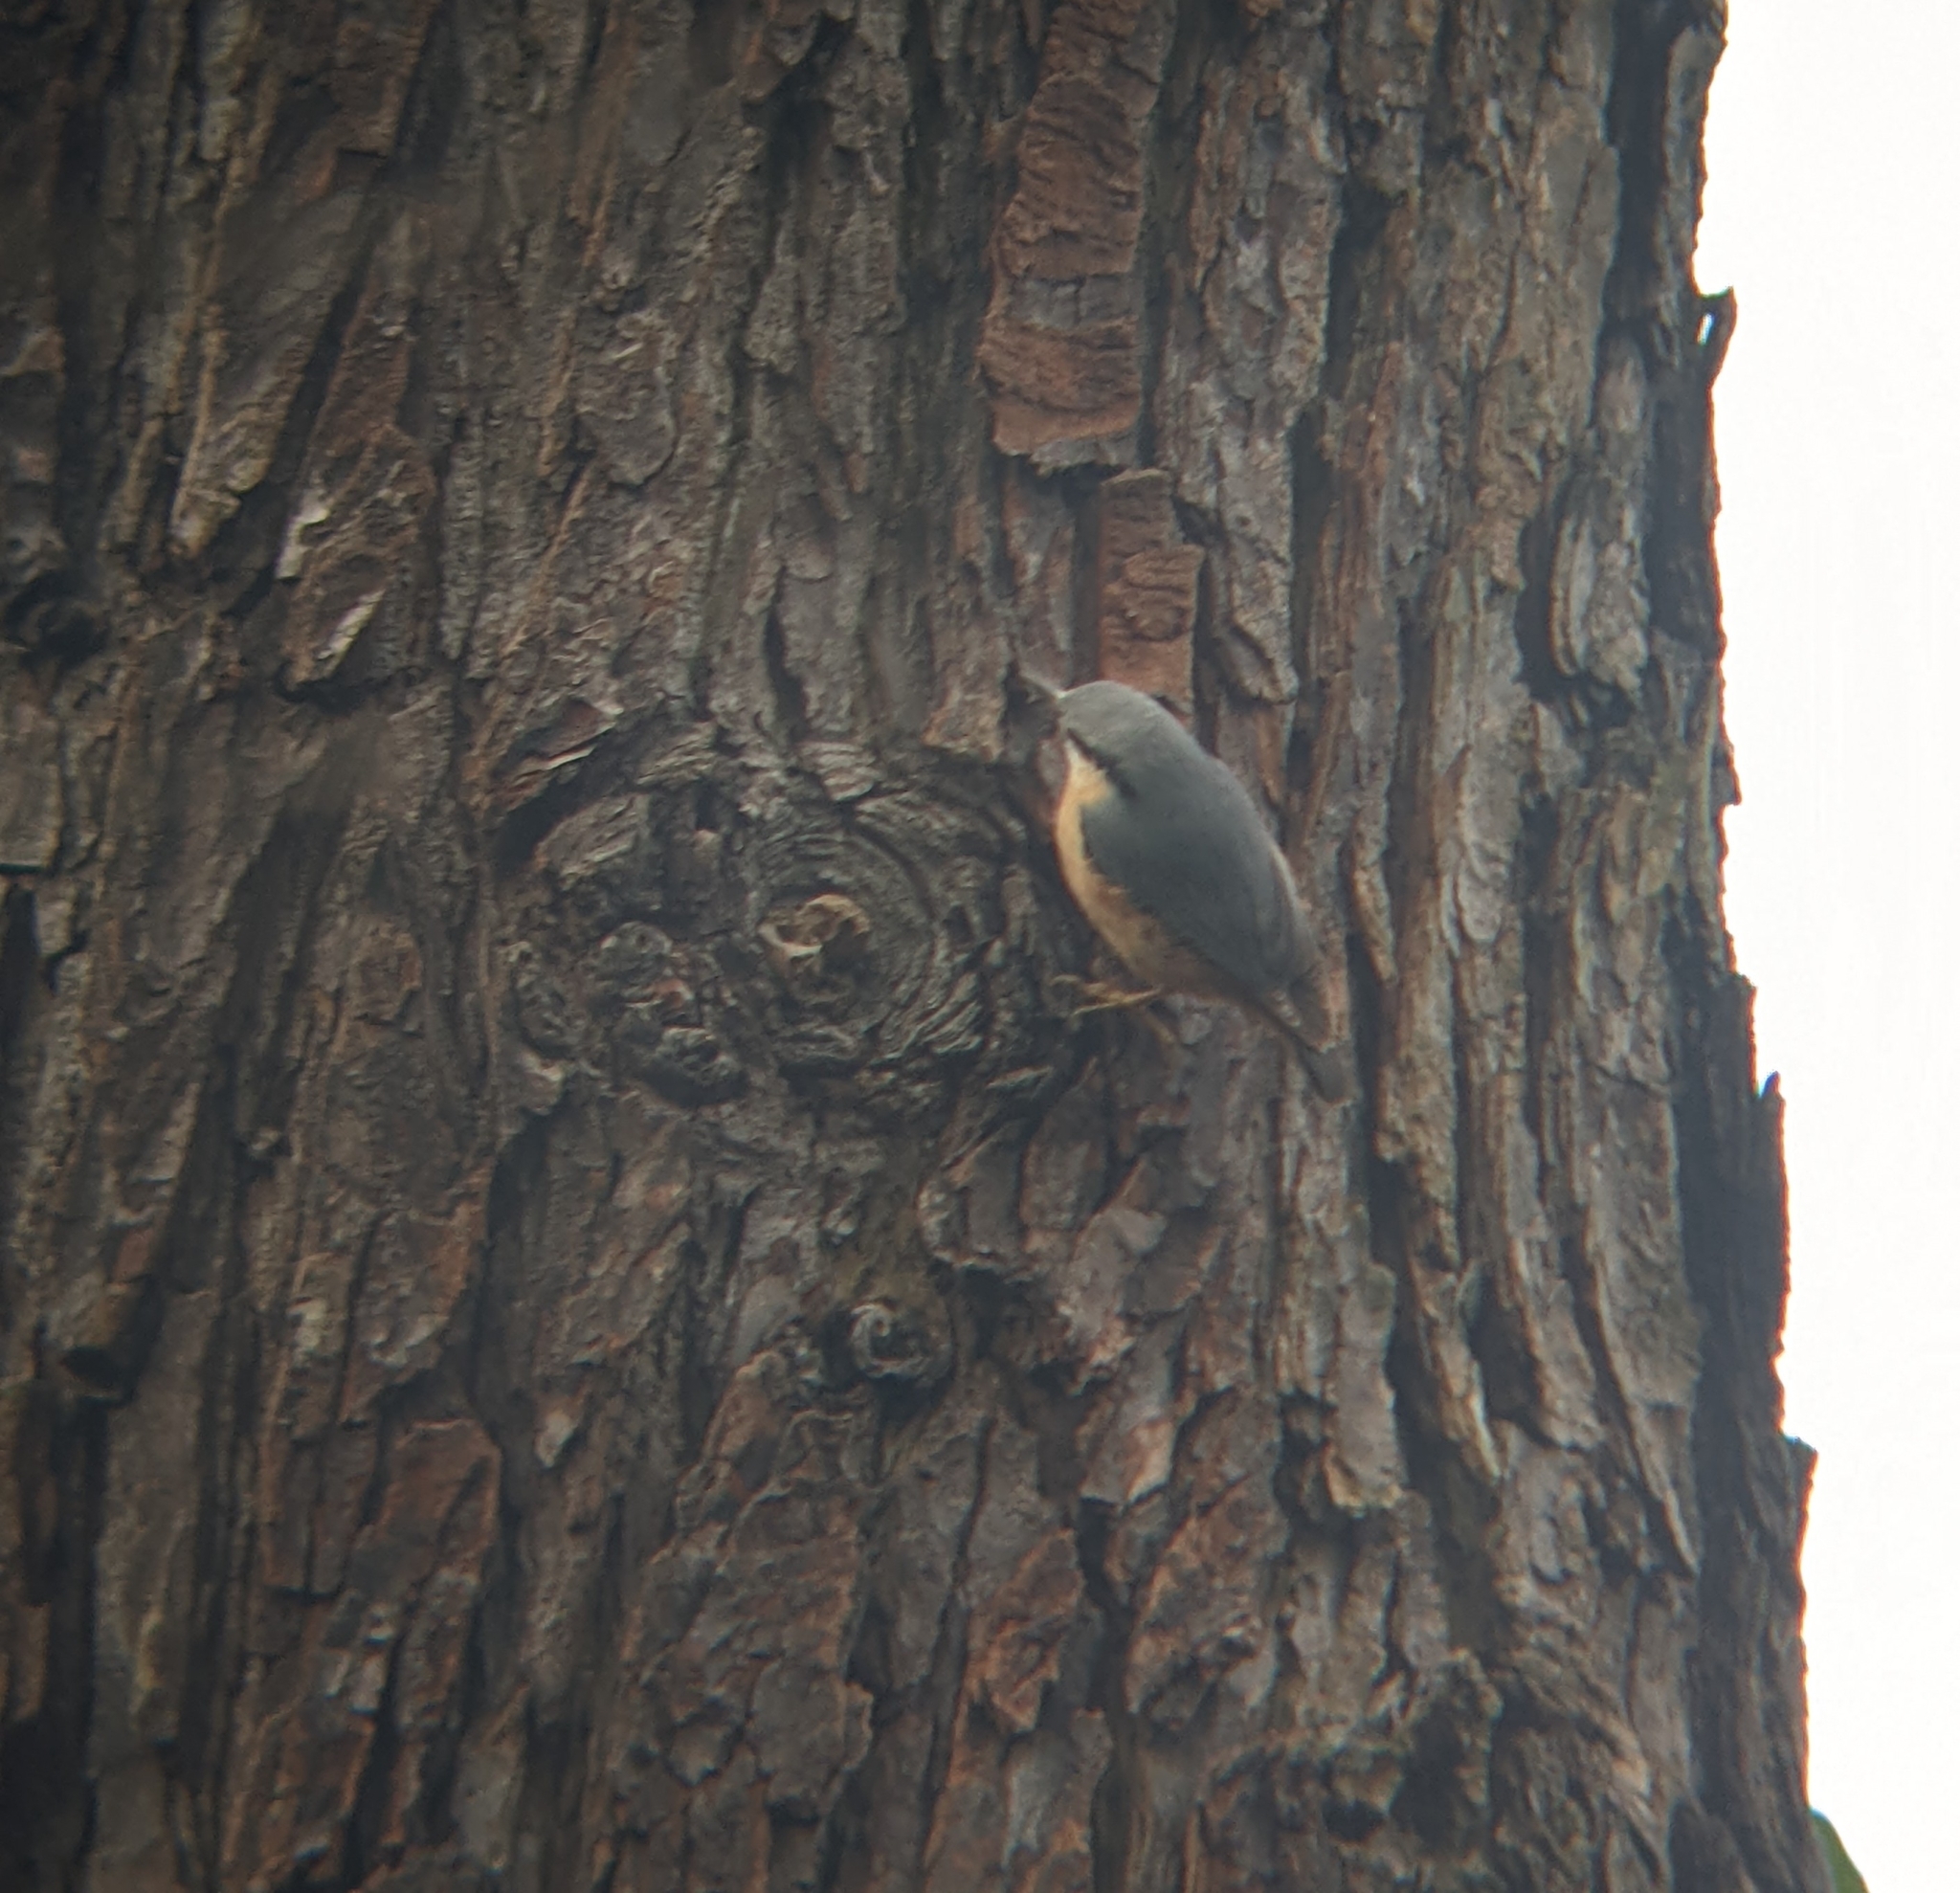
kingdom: Animalia
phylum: Chordata
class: Aves
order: Passeriformes
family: Sittidae
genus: Sitta
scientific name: Sitta europaea
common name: Eurasian nuthatch
